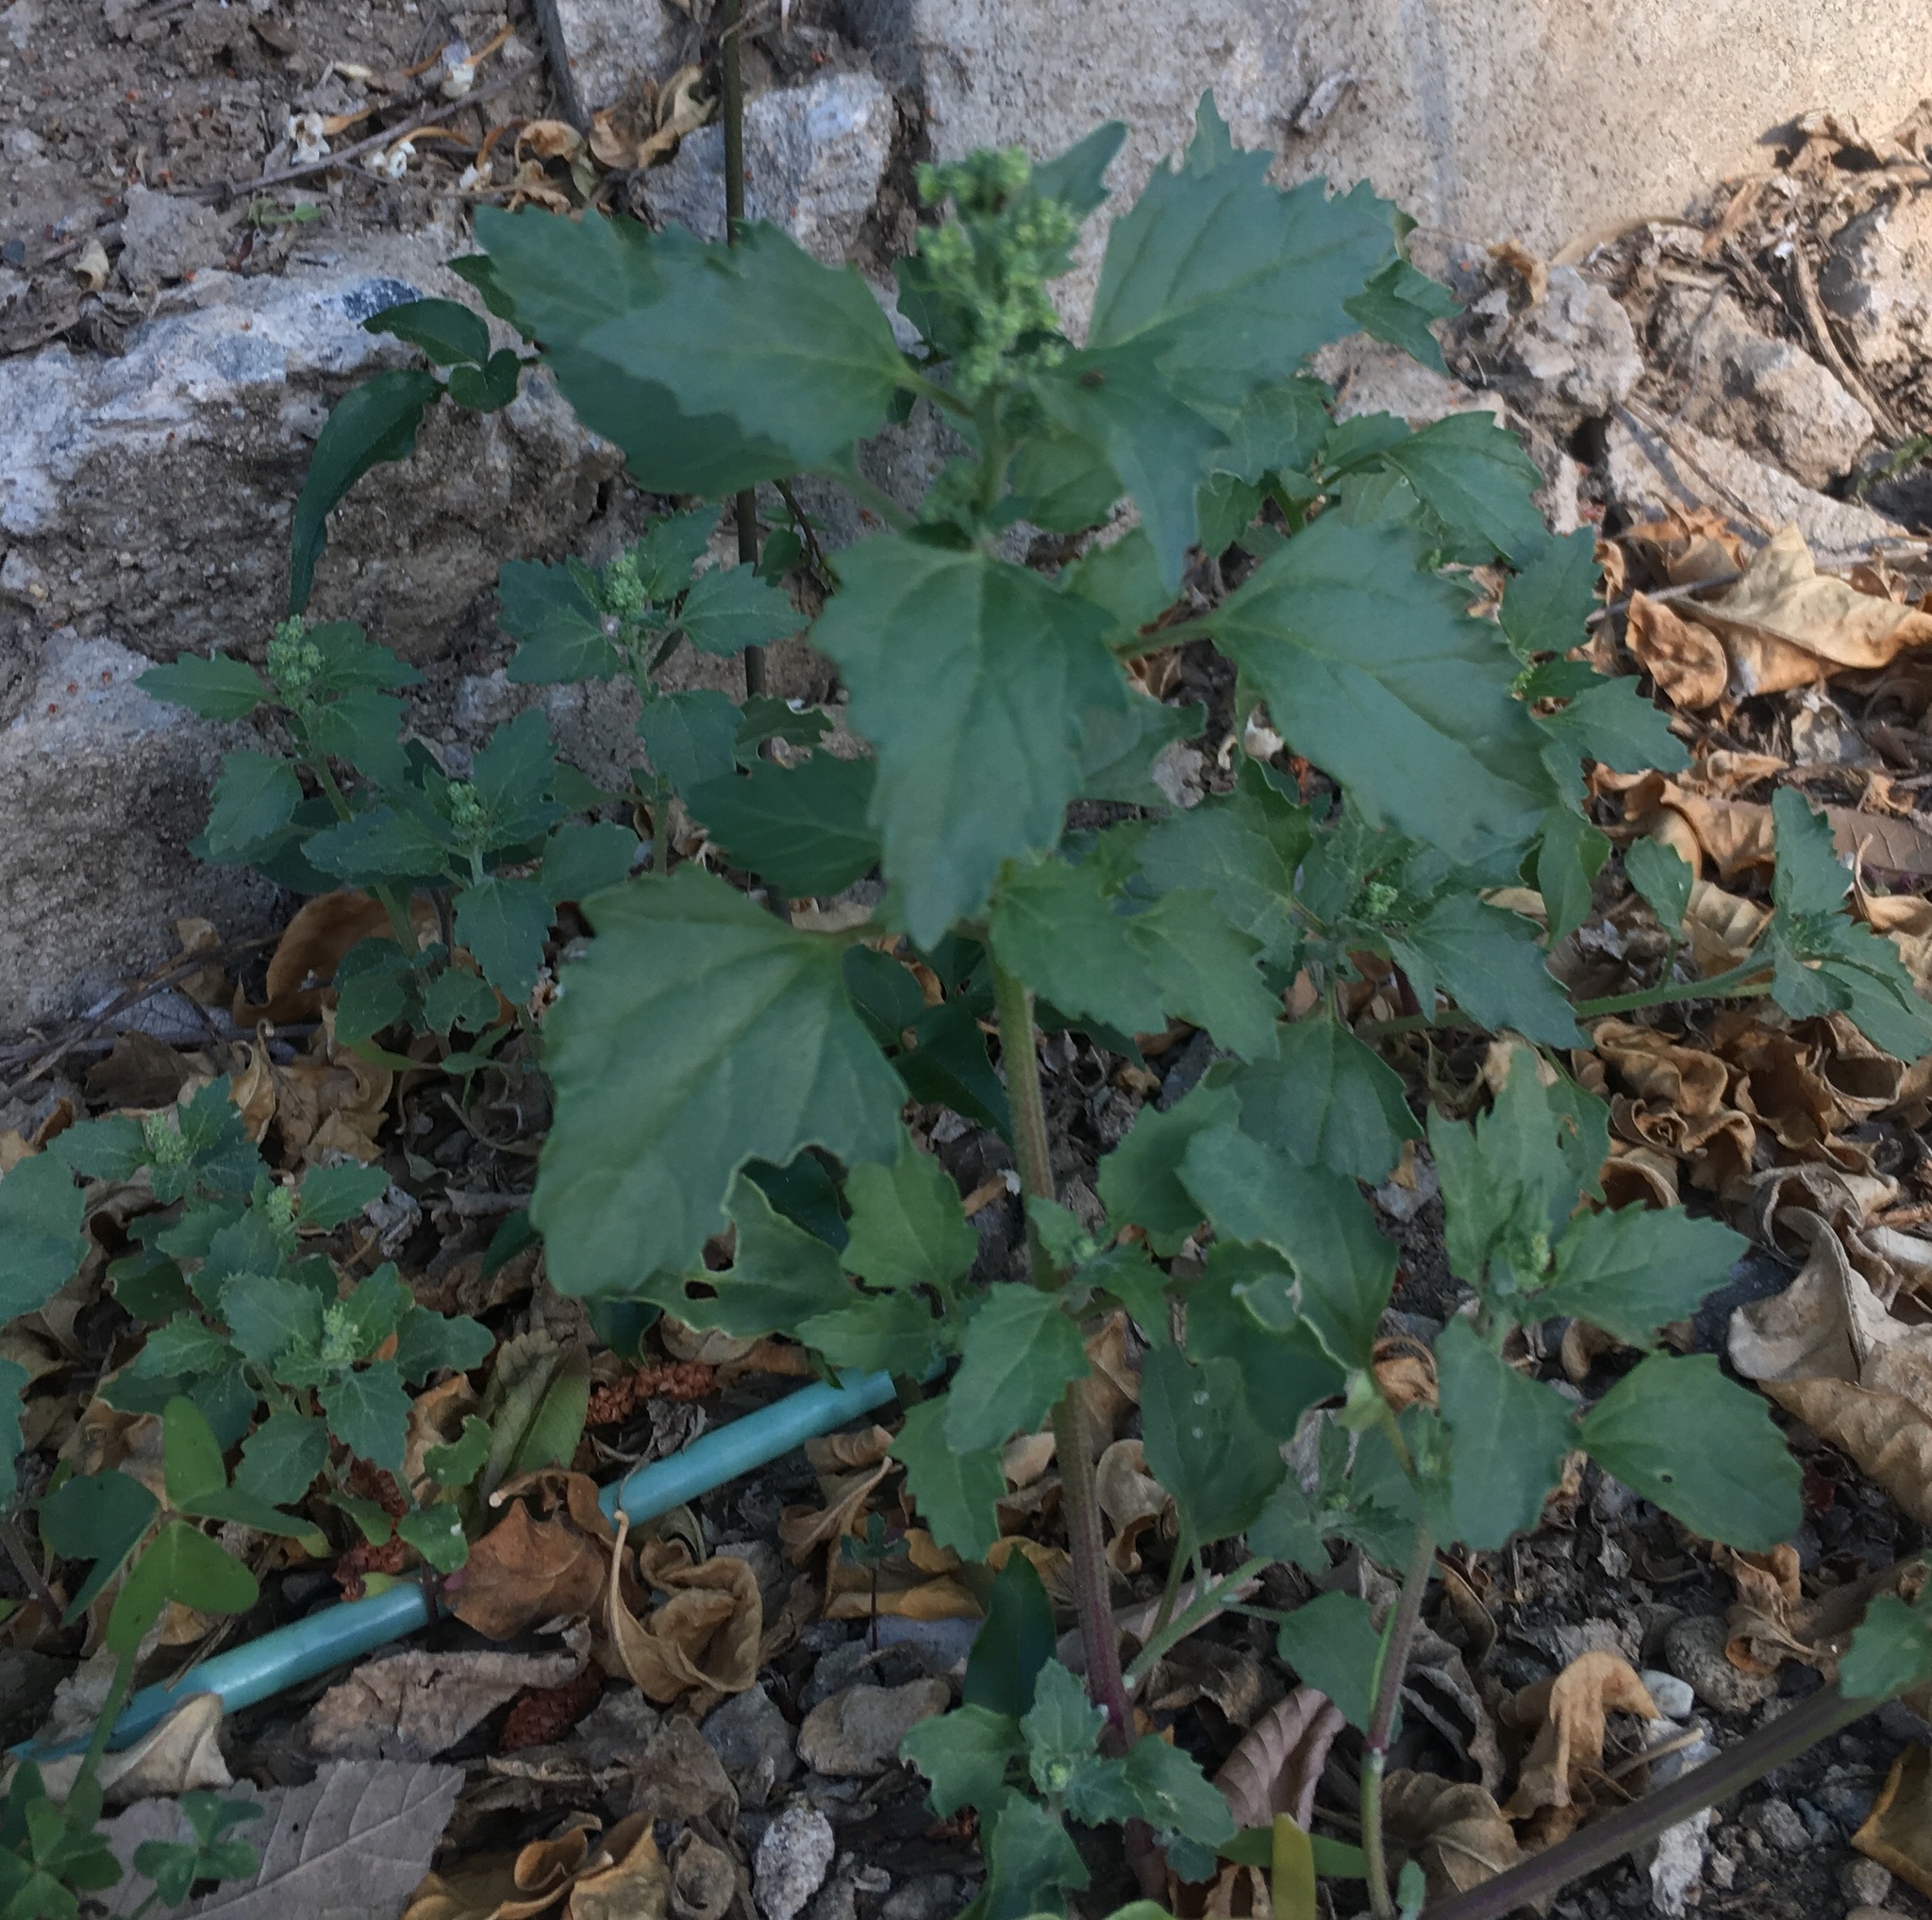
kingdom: Plantae
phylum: Tracheophyta
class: Magnoliopsida
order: Caryophyllales
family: Amaranthaceae
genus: Chenopodiastrum
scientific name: Chenopodiastrum murale
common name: Sowbane
